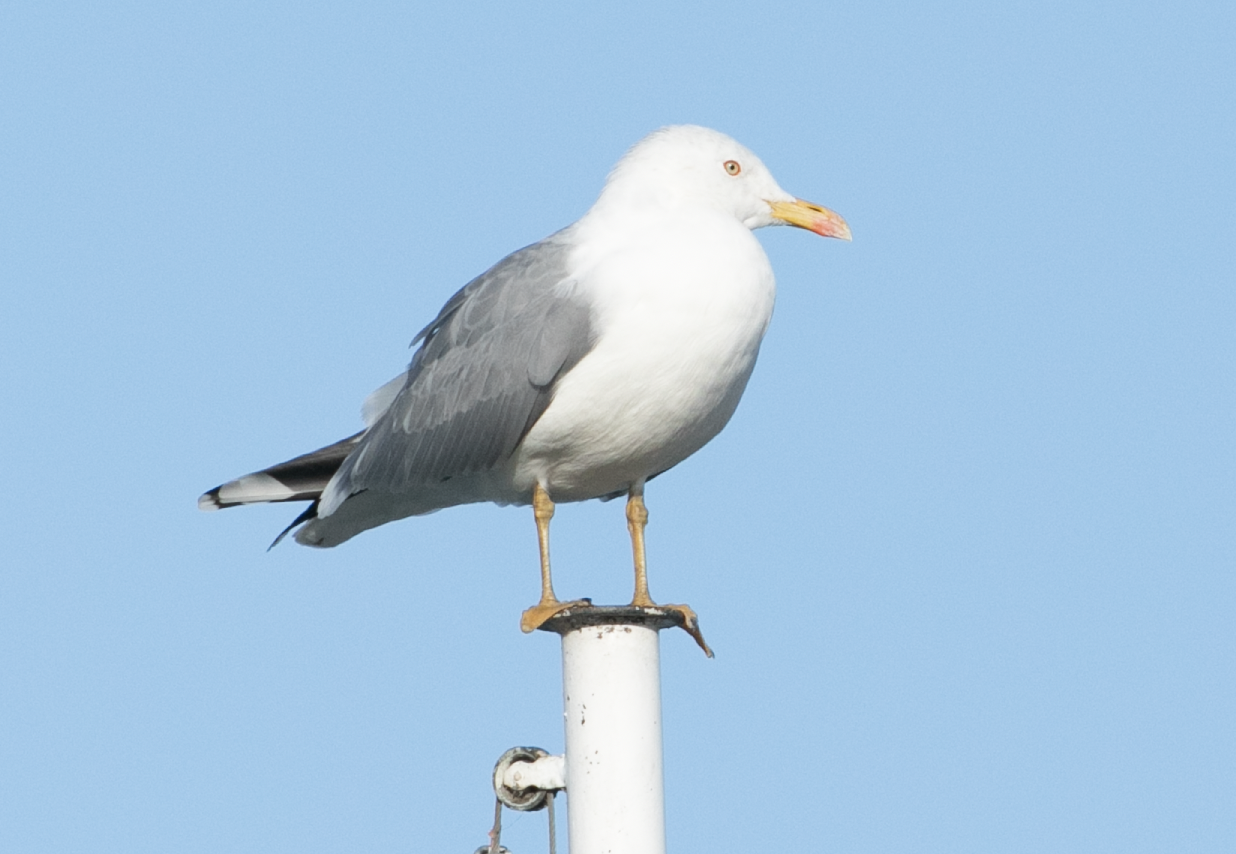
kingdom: Animalia
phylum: Chordata
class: Aves
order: Charadriiformes
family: Laridae
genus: Larus
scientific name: Larus michahellis
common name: Yellow-legged gull
